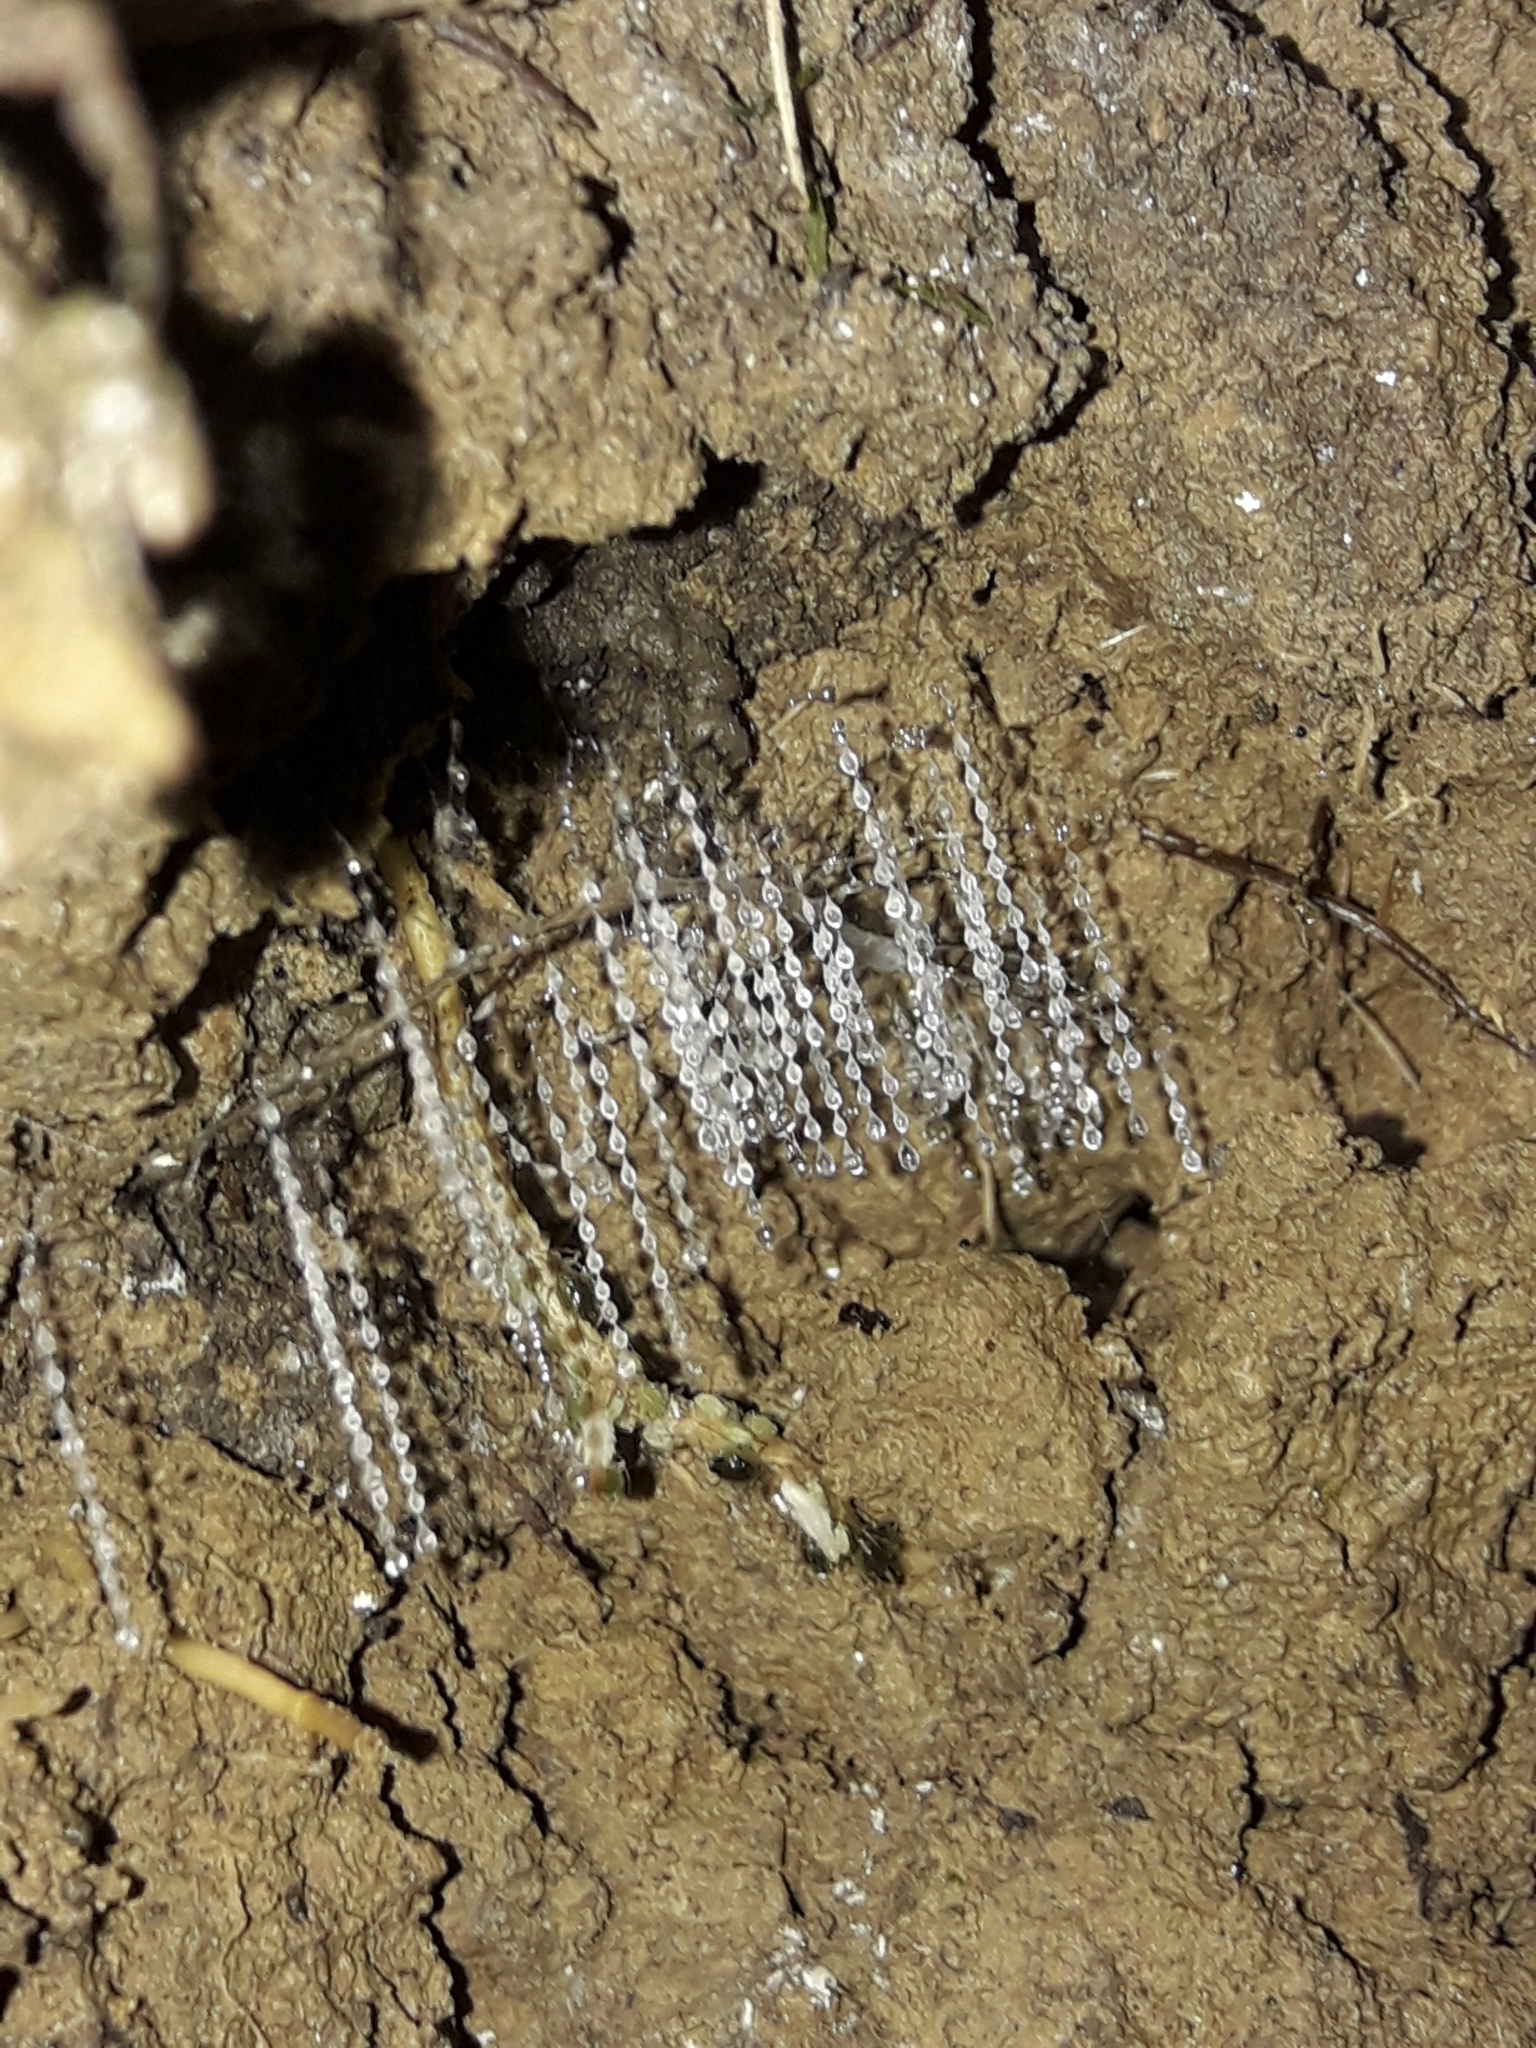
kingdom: Animalia
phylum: Arthropoda
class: Insecta
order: Diptera
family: Keroplatidae
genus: Arachnocampa
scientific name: Arachnocampa luminosa
